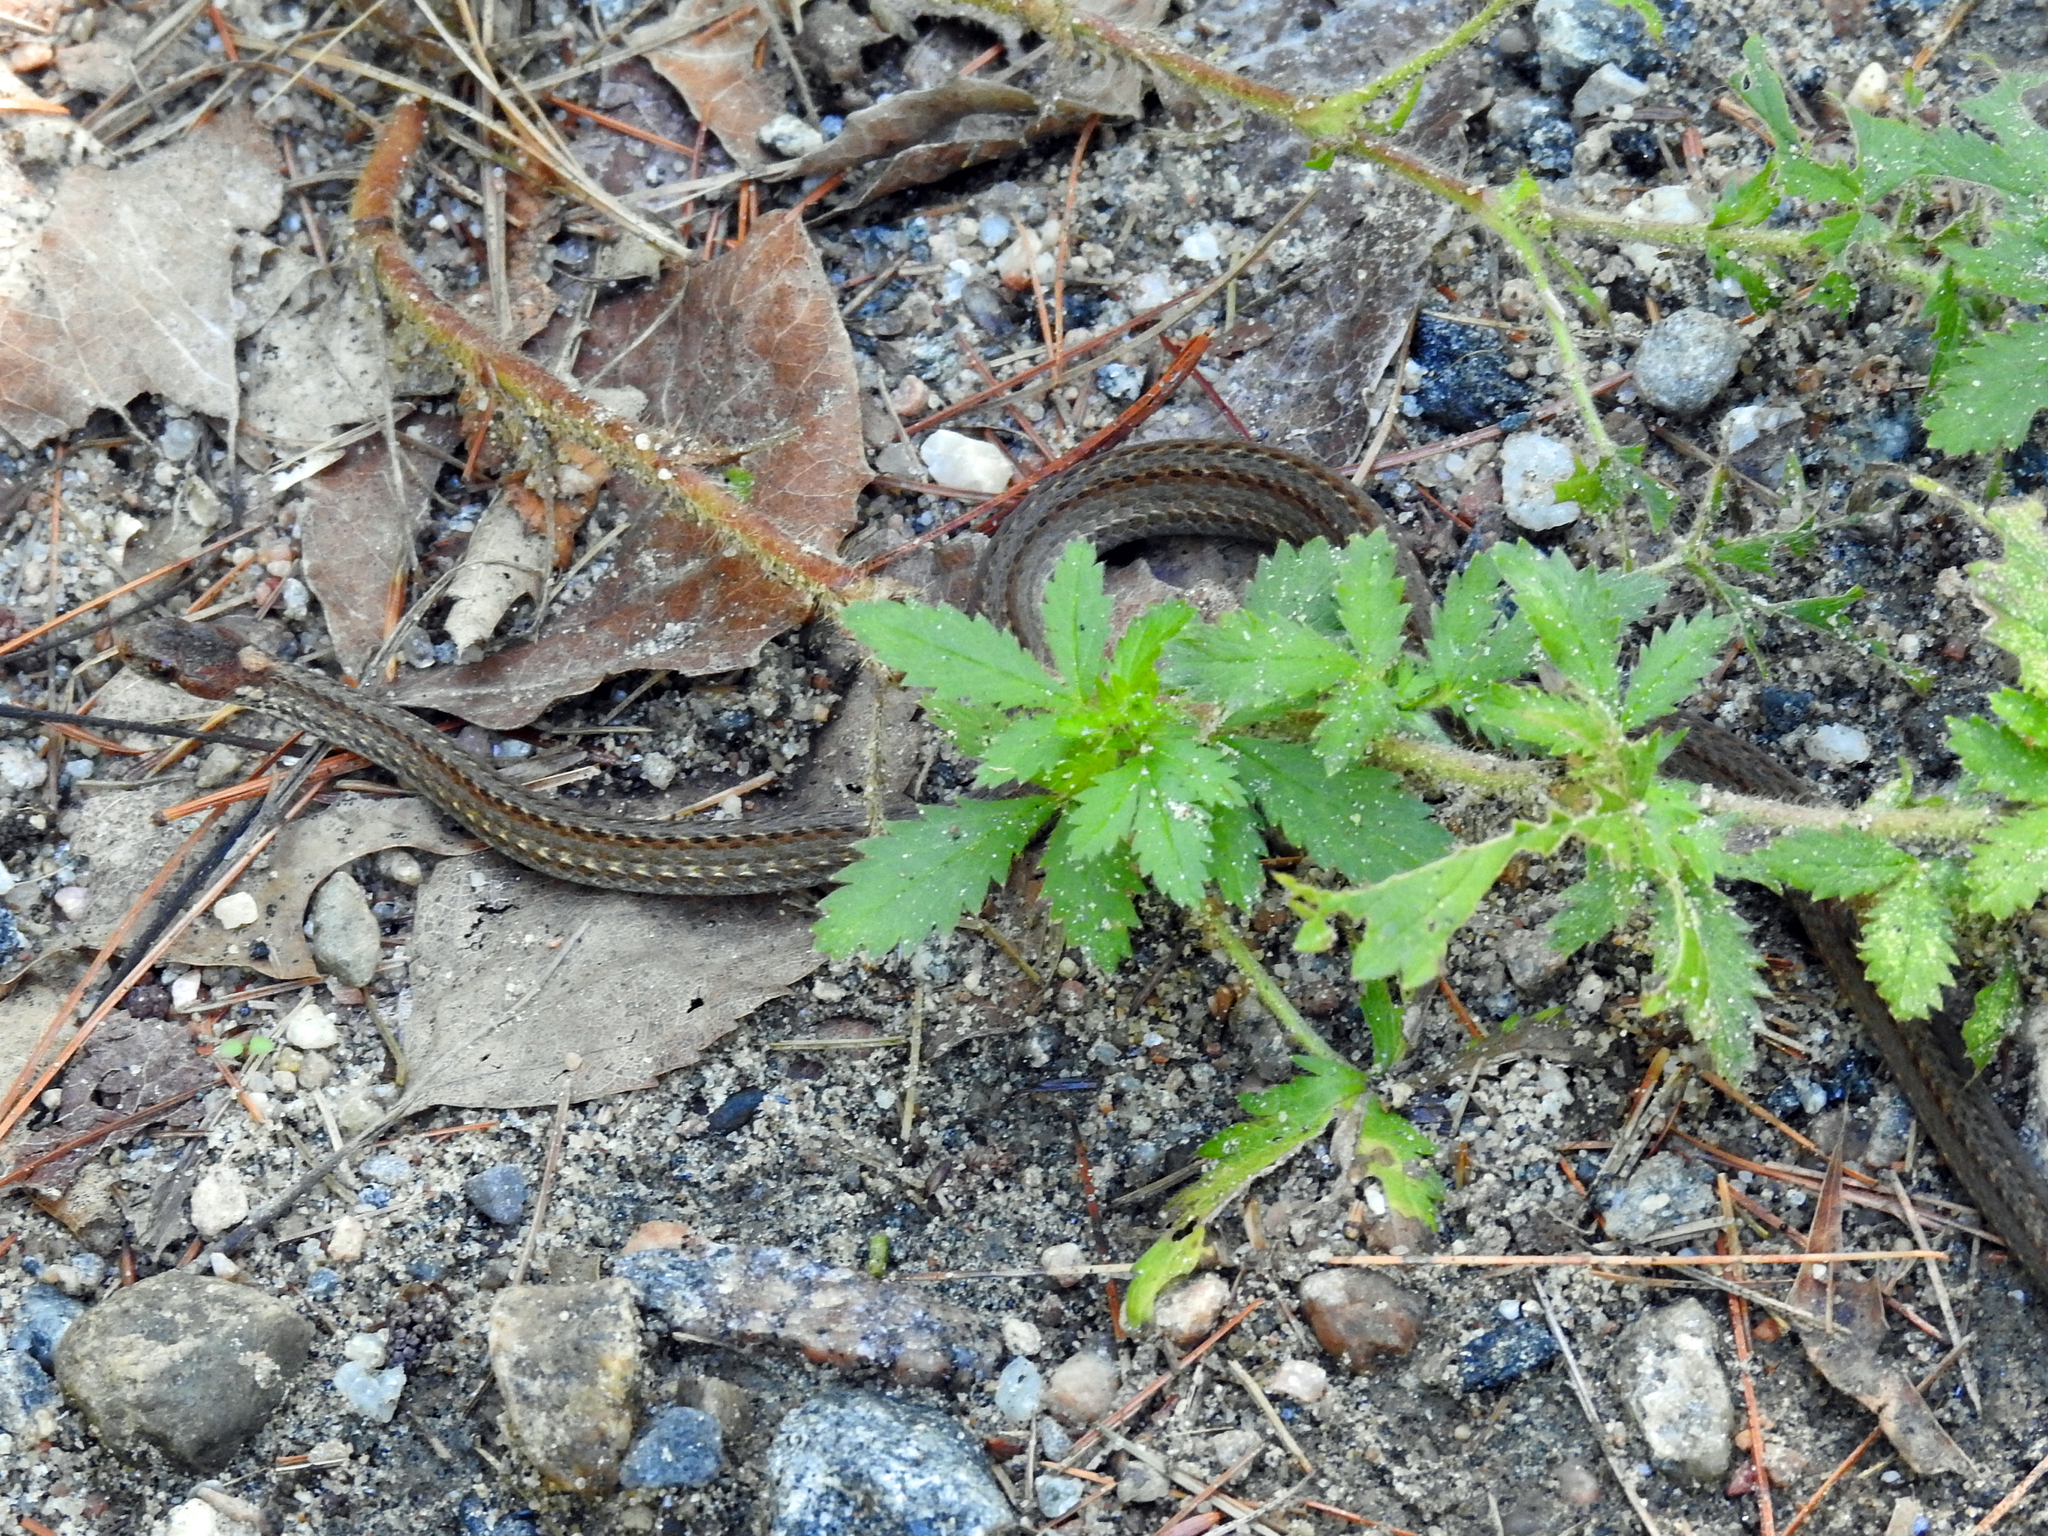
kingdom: Animalia
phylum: Chordata
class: Squamata
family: Colubridae
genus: Storeria
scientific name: Storeria occipitomaculata
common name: Redbelly snake
